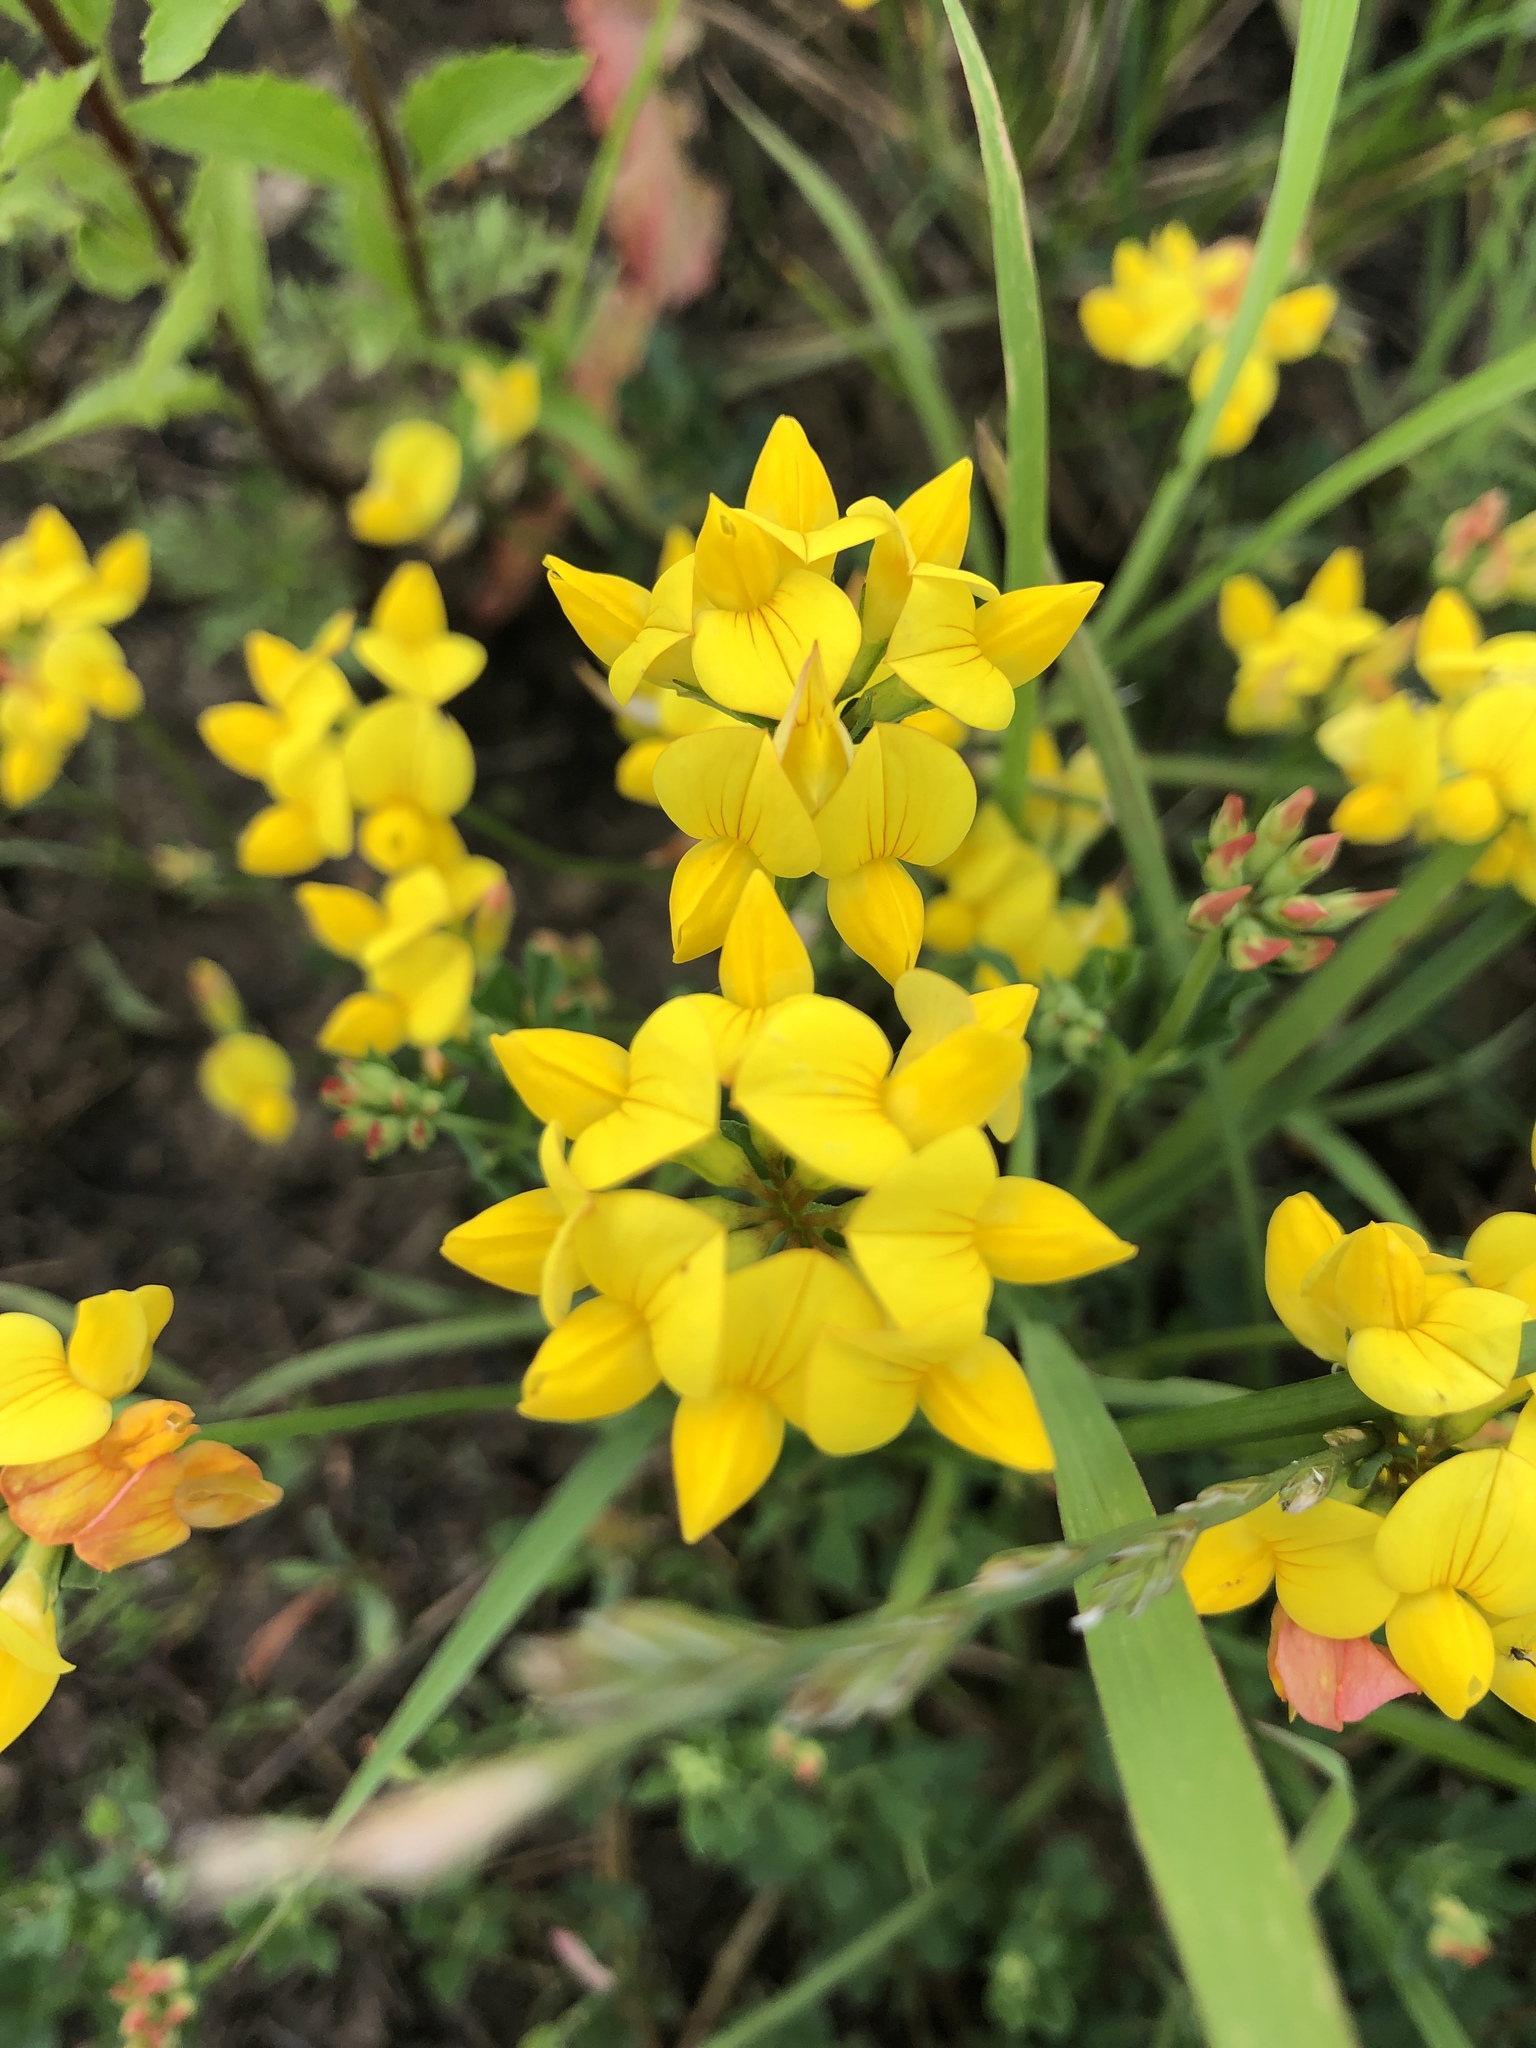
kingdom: Plantae
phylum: Tracheophyta
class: Magnoliopsida
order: Fabales
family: Fabaceae
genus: Lotus
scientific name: Lotus corniculatus
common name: Common bird's-foot-trefoil
